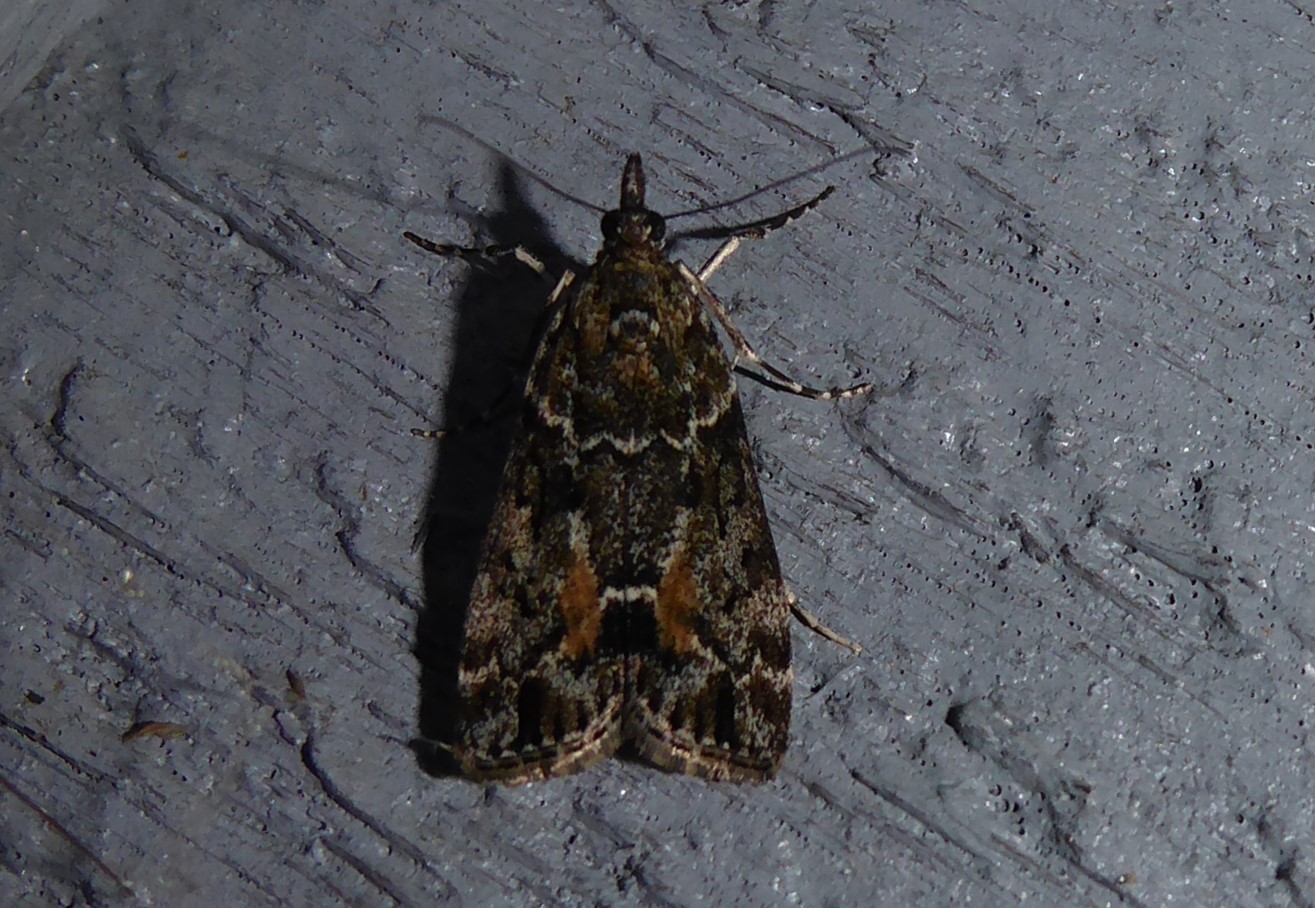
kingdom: Animalia
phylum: Arthropoda
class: Insecta
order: Lepidoptera
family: Crambidae
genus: Eudonia
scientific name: Eudonia submarginalis
